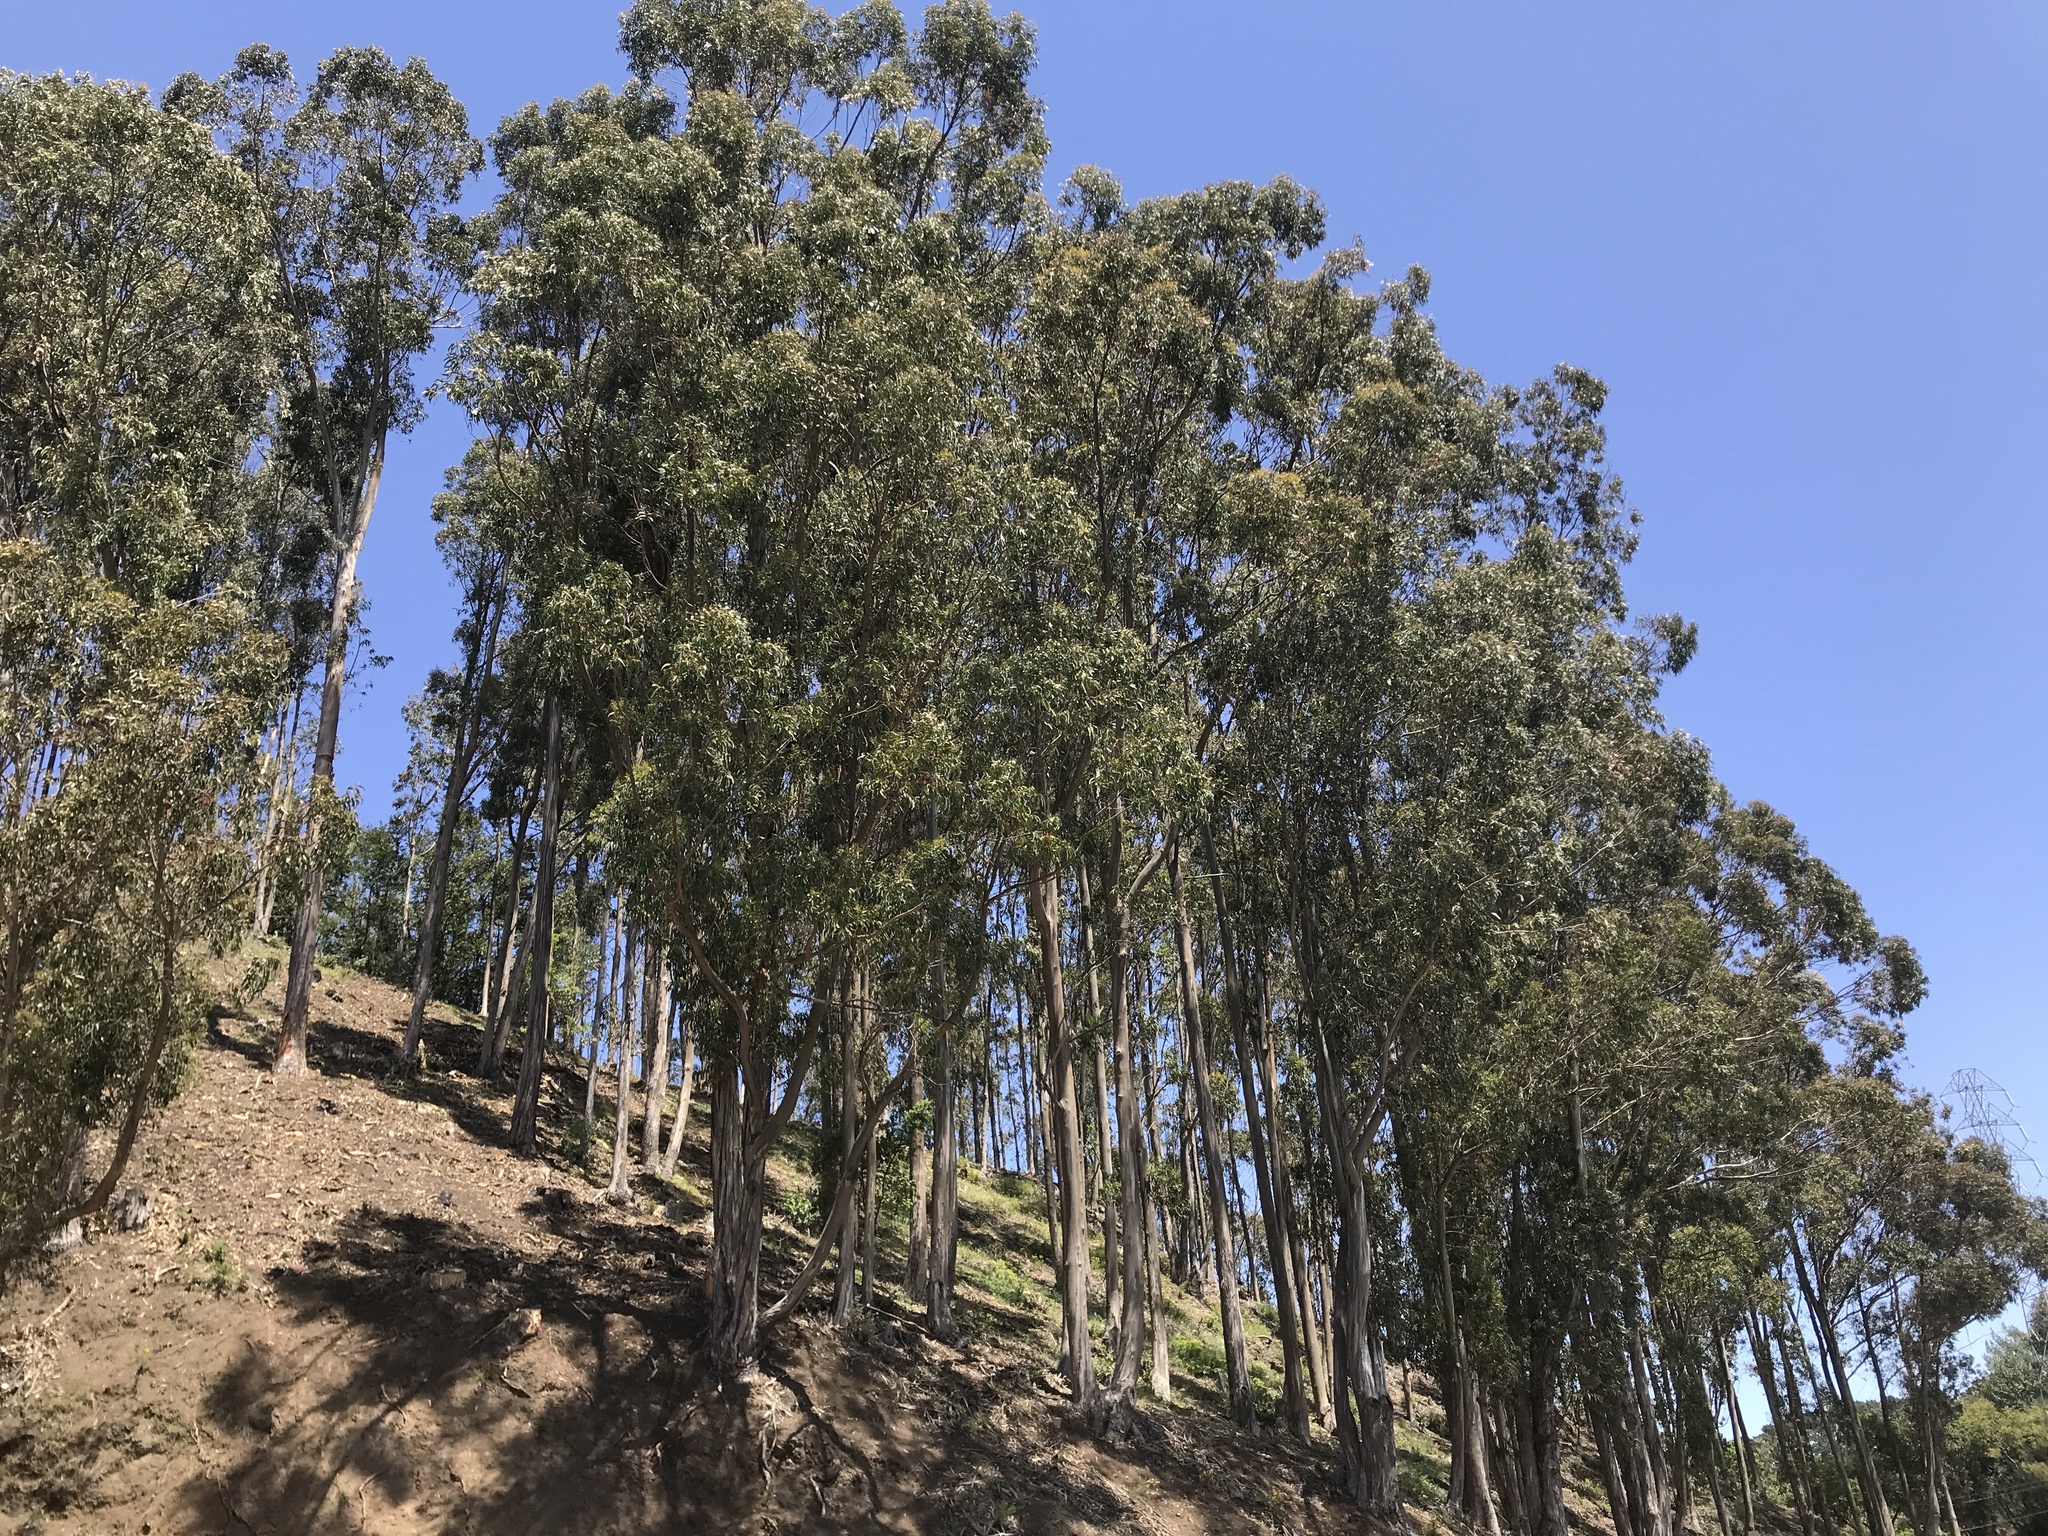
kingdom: Plantae
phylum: Tracheophyta
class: Magnoliopsida
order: Myrtales
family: Myrtaceae
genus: Eucalyptus
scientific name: Eucalyptus globulus
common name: Southern blue-gum
